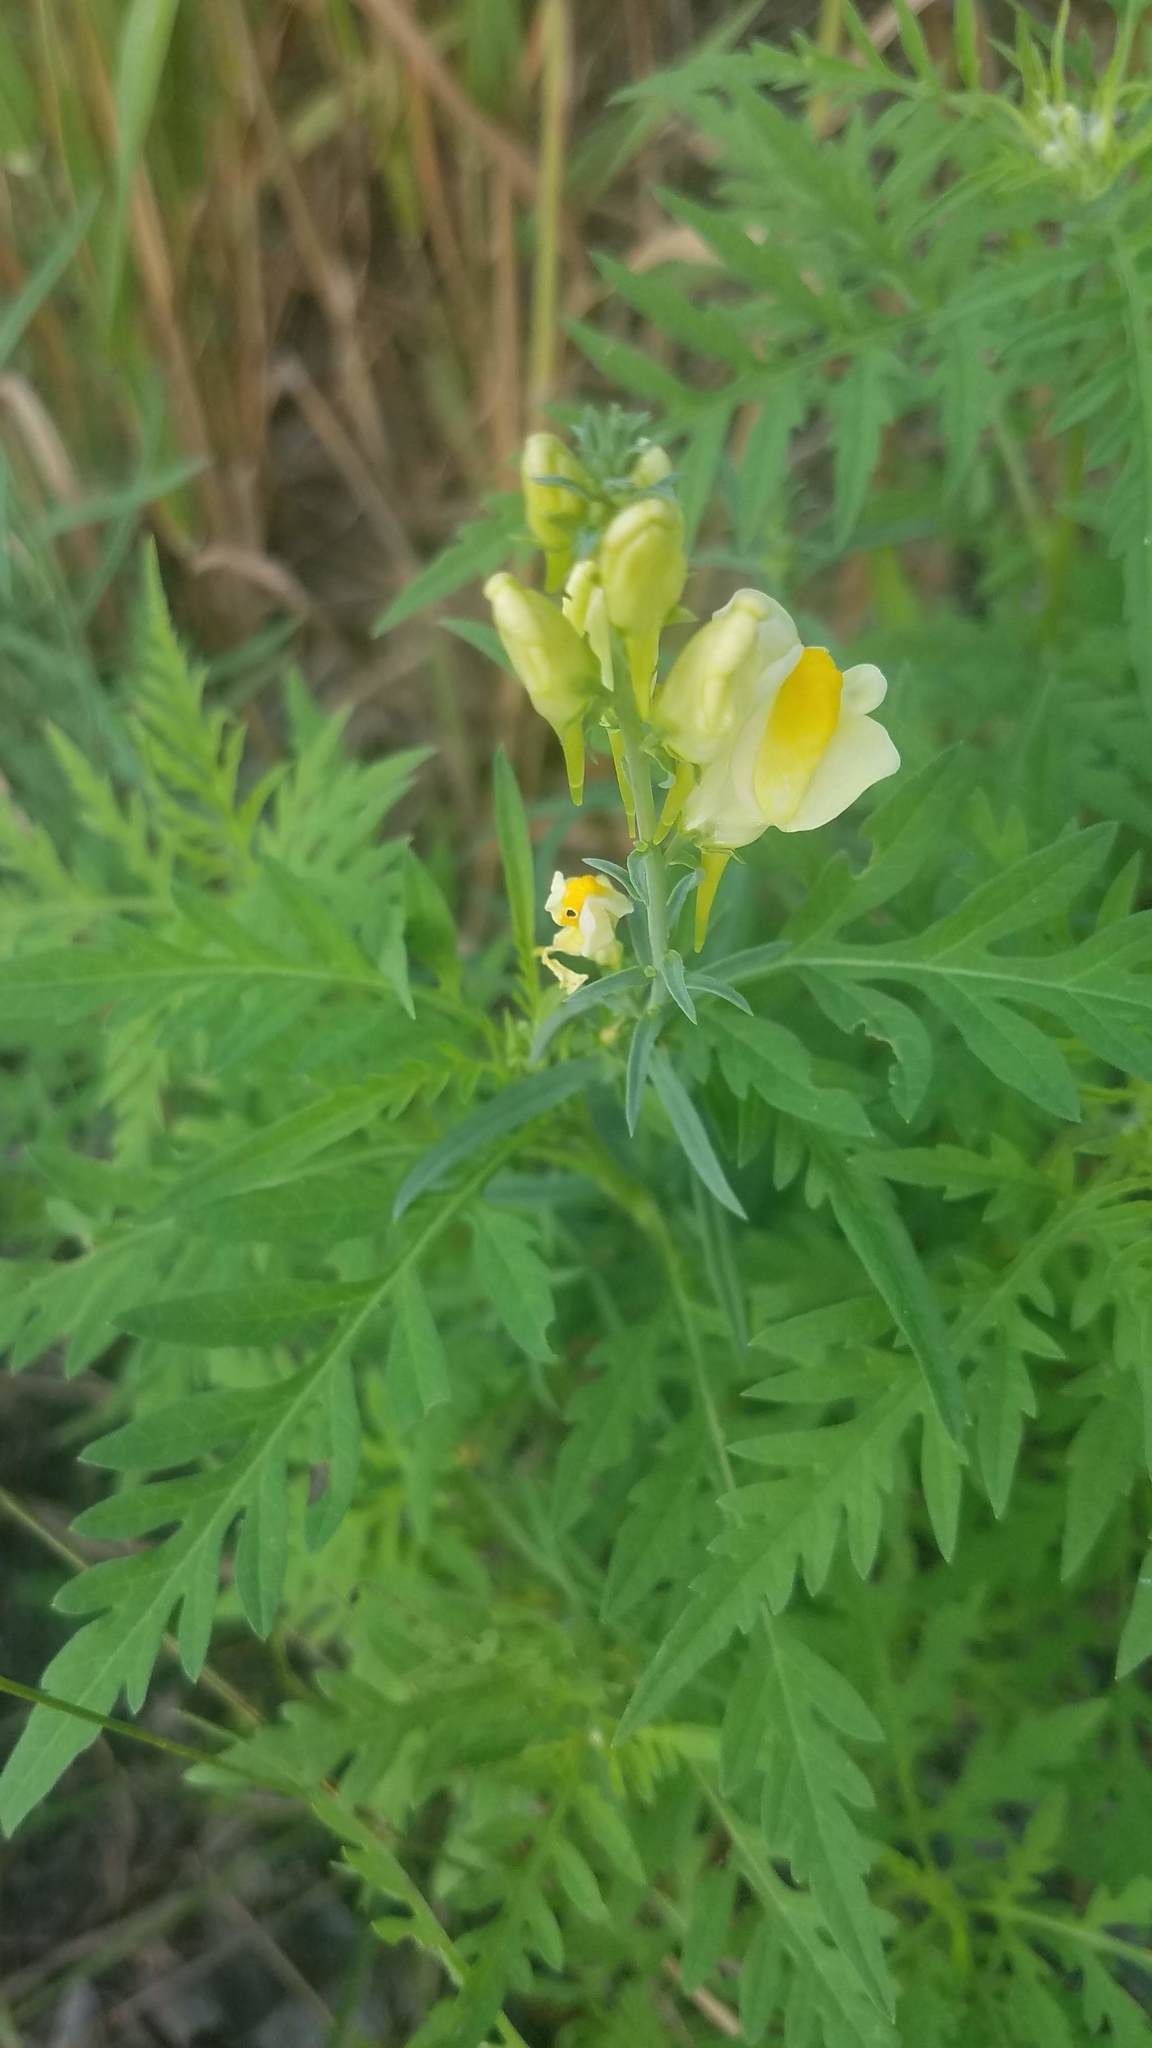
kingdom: Plantae
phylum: Tracheophyta
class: Magnoliopsida
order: Lamiales
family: Plantaginaceae
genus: Linaria
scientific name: Linaria vulgaris
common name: Butter and eggs
